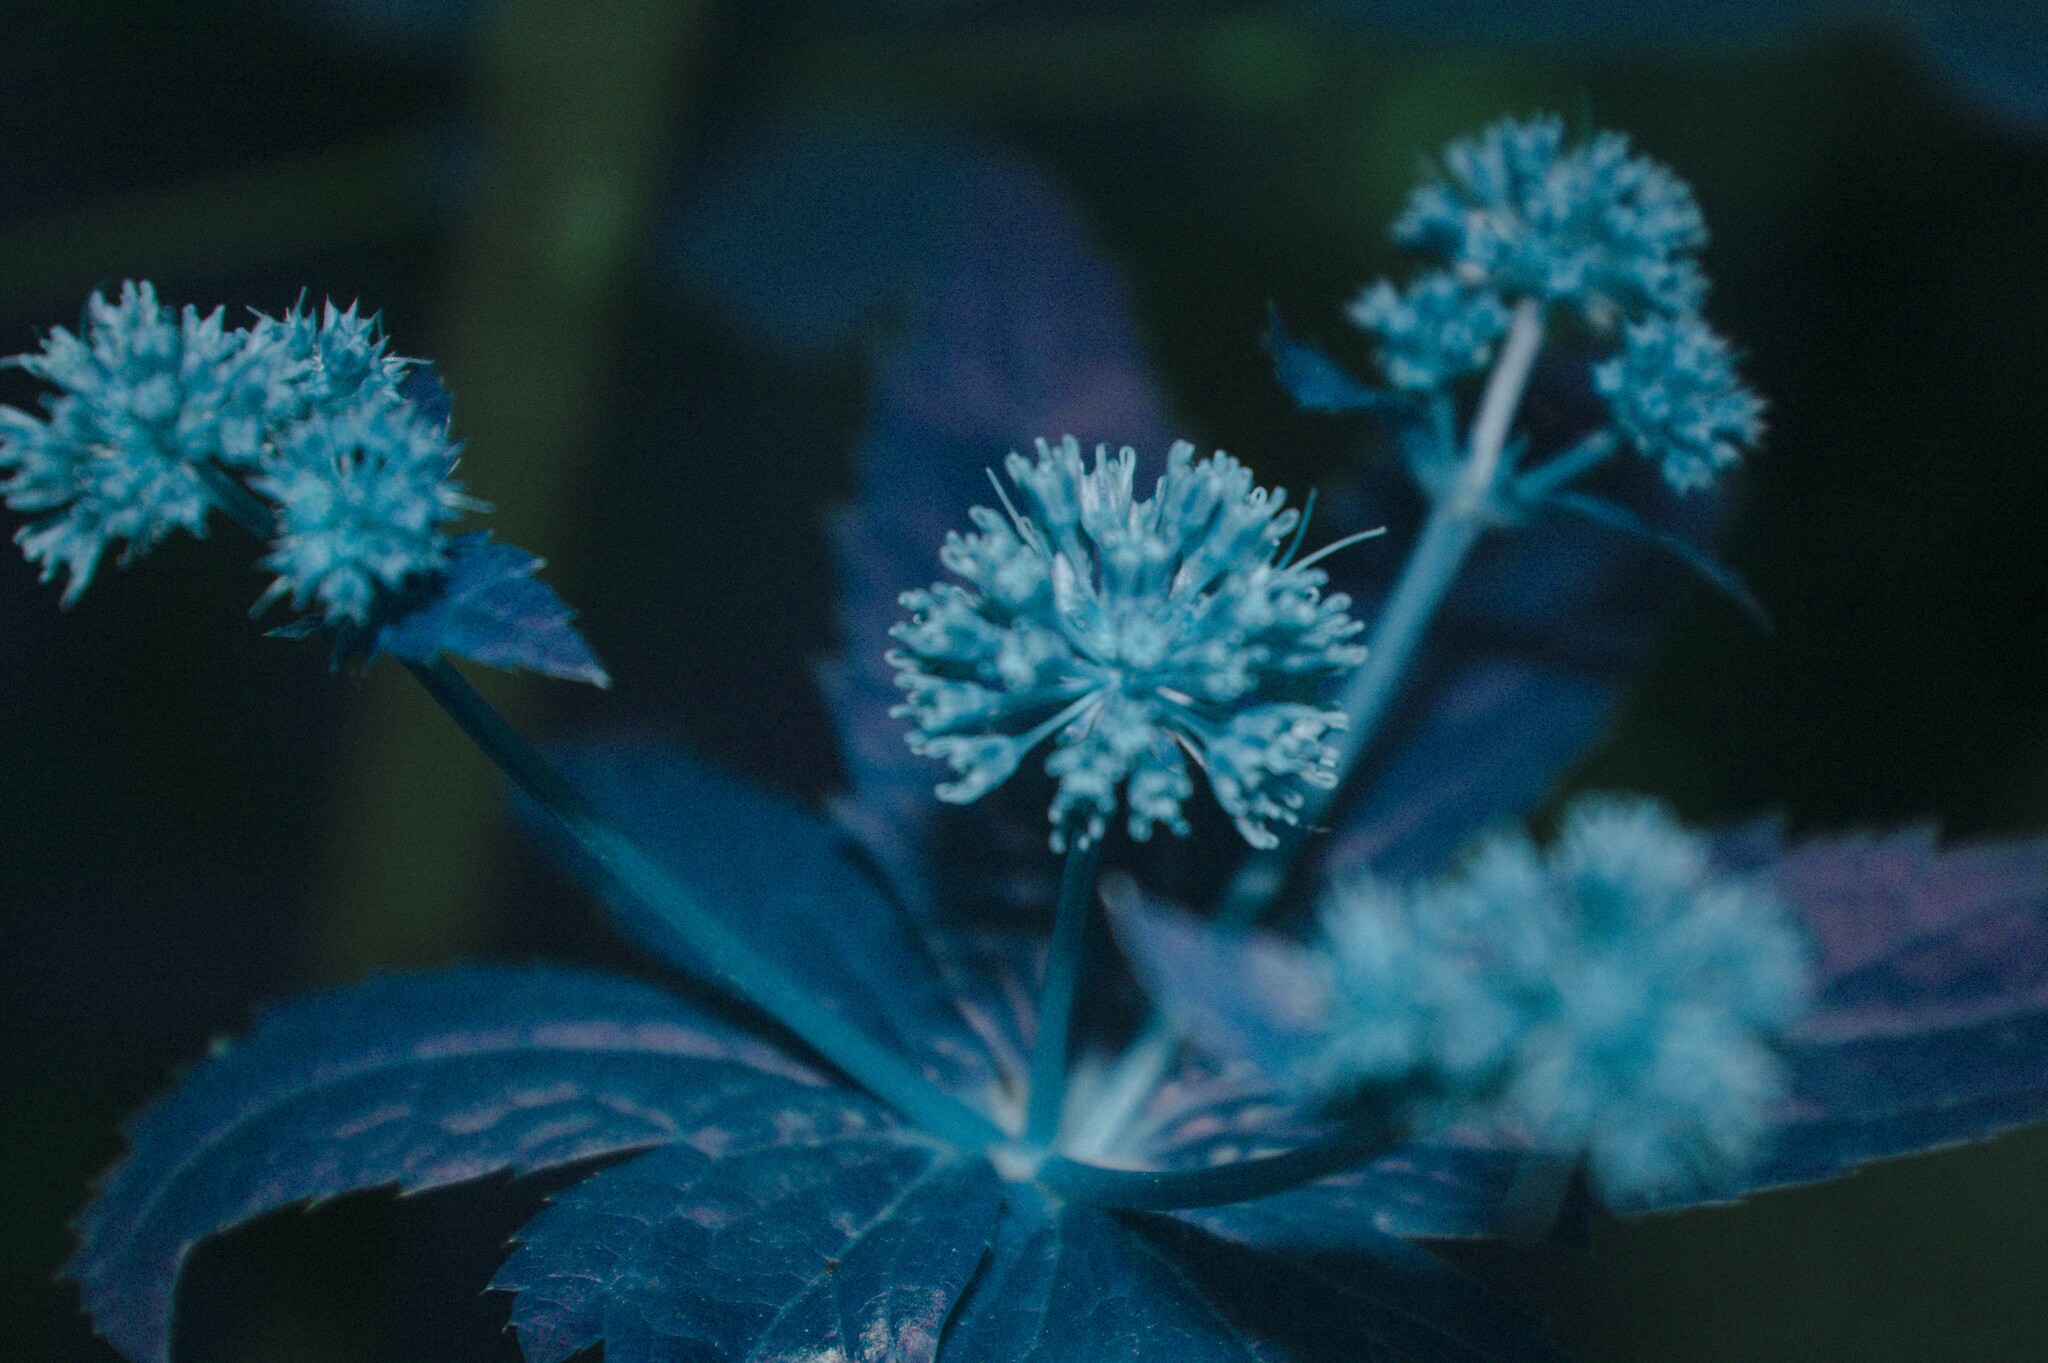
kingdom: Plantae
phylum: Tracheophyta
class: Magnoliopsida
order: Apiales
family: Apiaceae
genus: Sanicula
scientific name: Sanicula marilandica
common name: Black snakeroot
